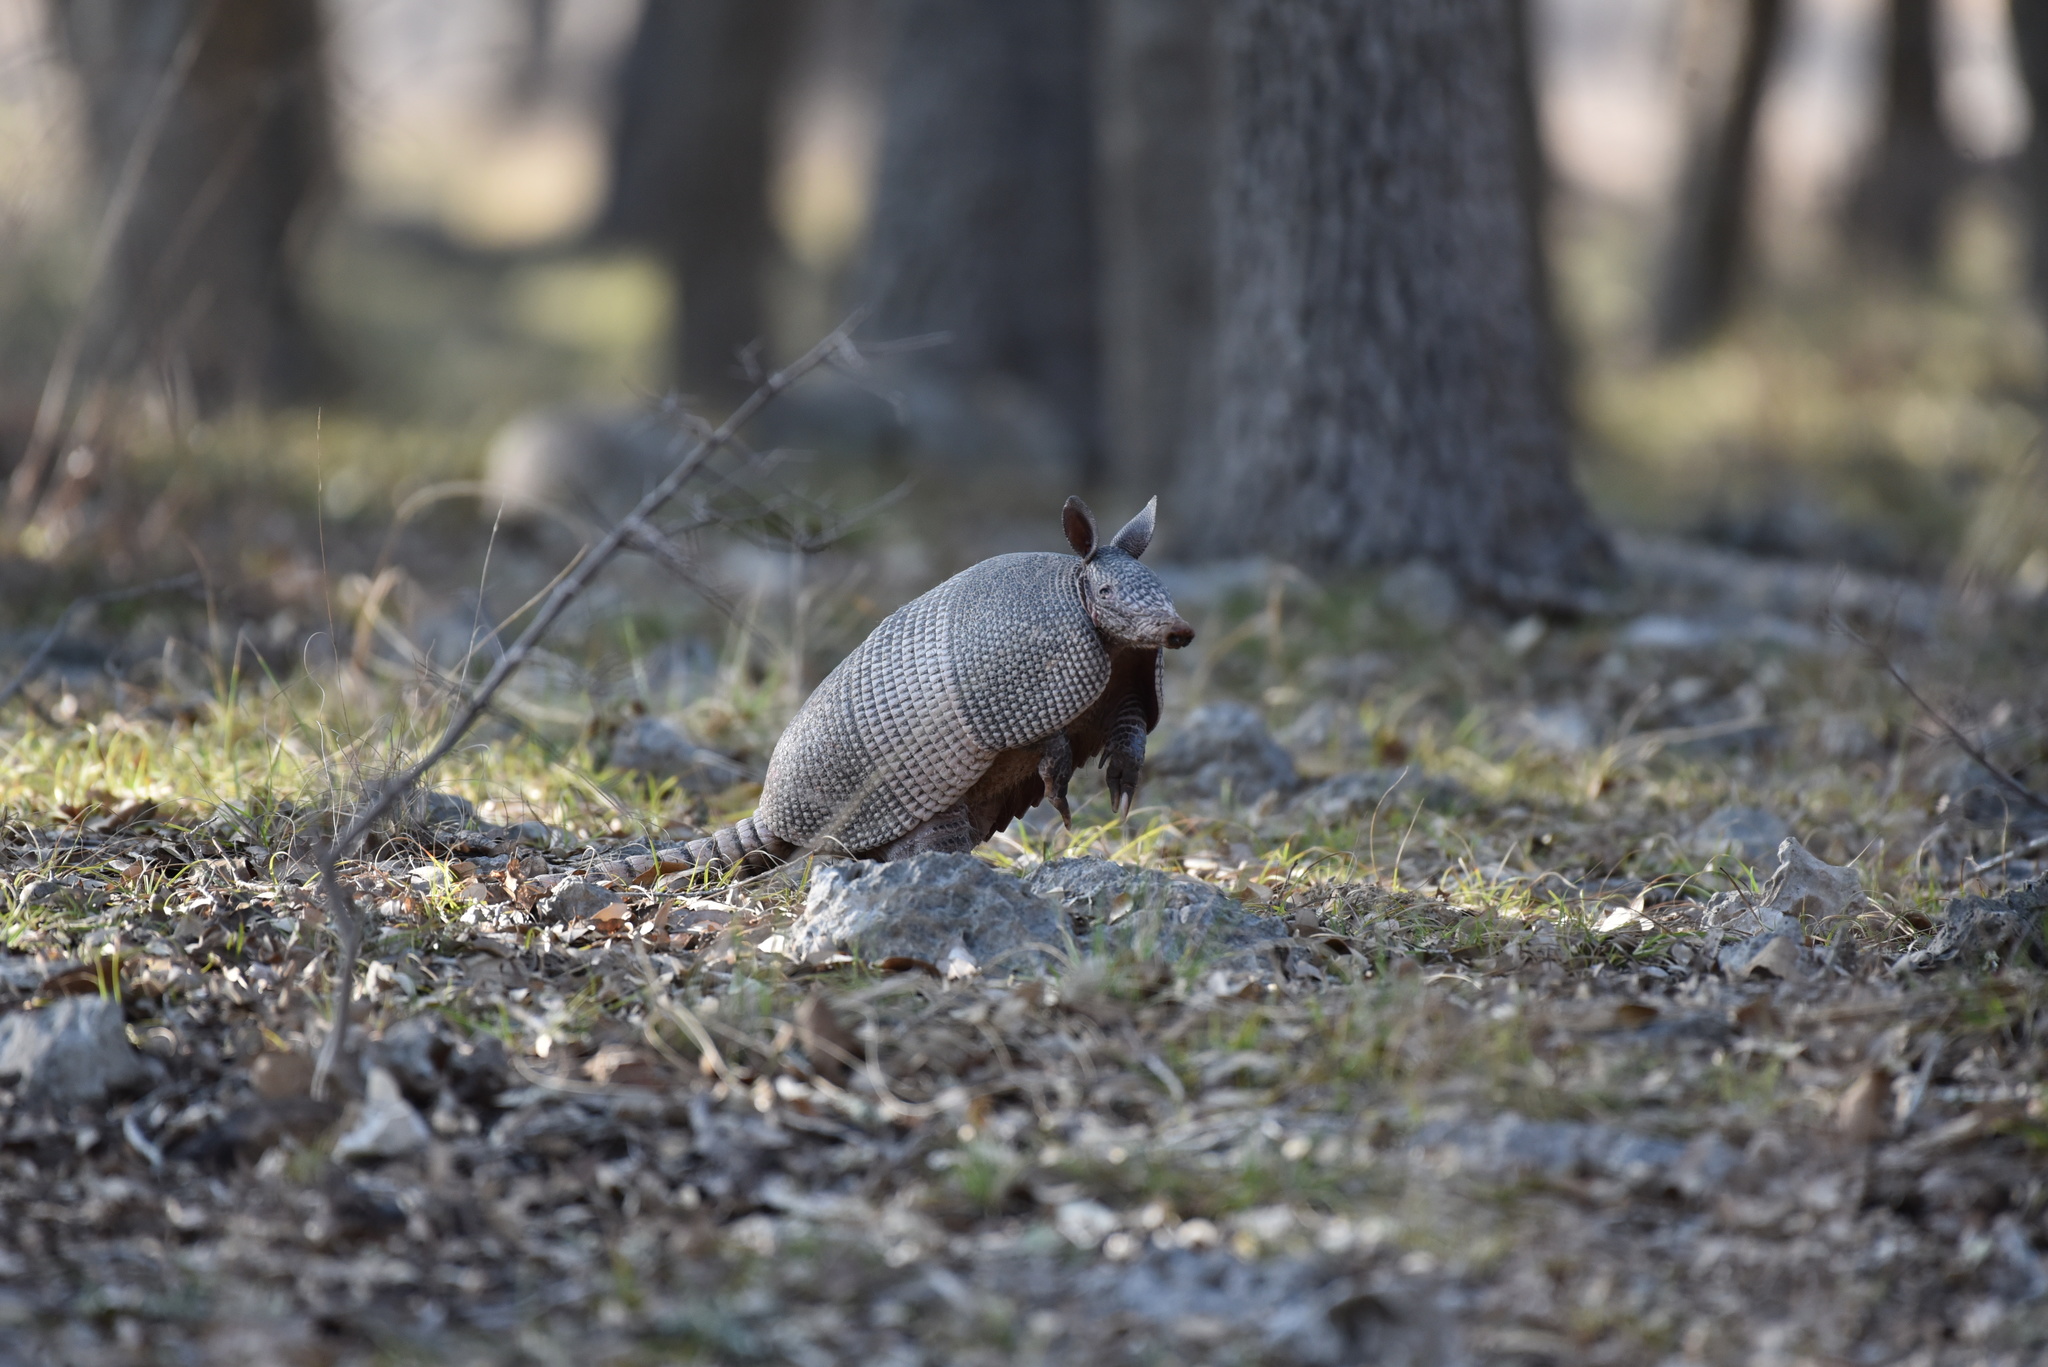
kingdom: Animalia
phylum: Chordata
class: Mammalia
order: Cingulata
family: Dasypodidae
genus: Dasypus
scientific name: Dasypus novemcinctus
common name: Nine-banded armadillo
